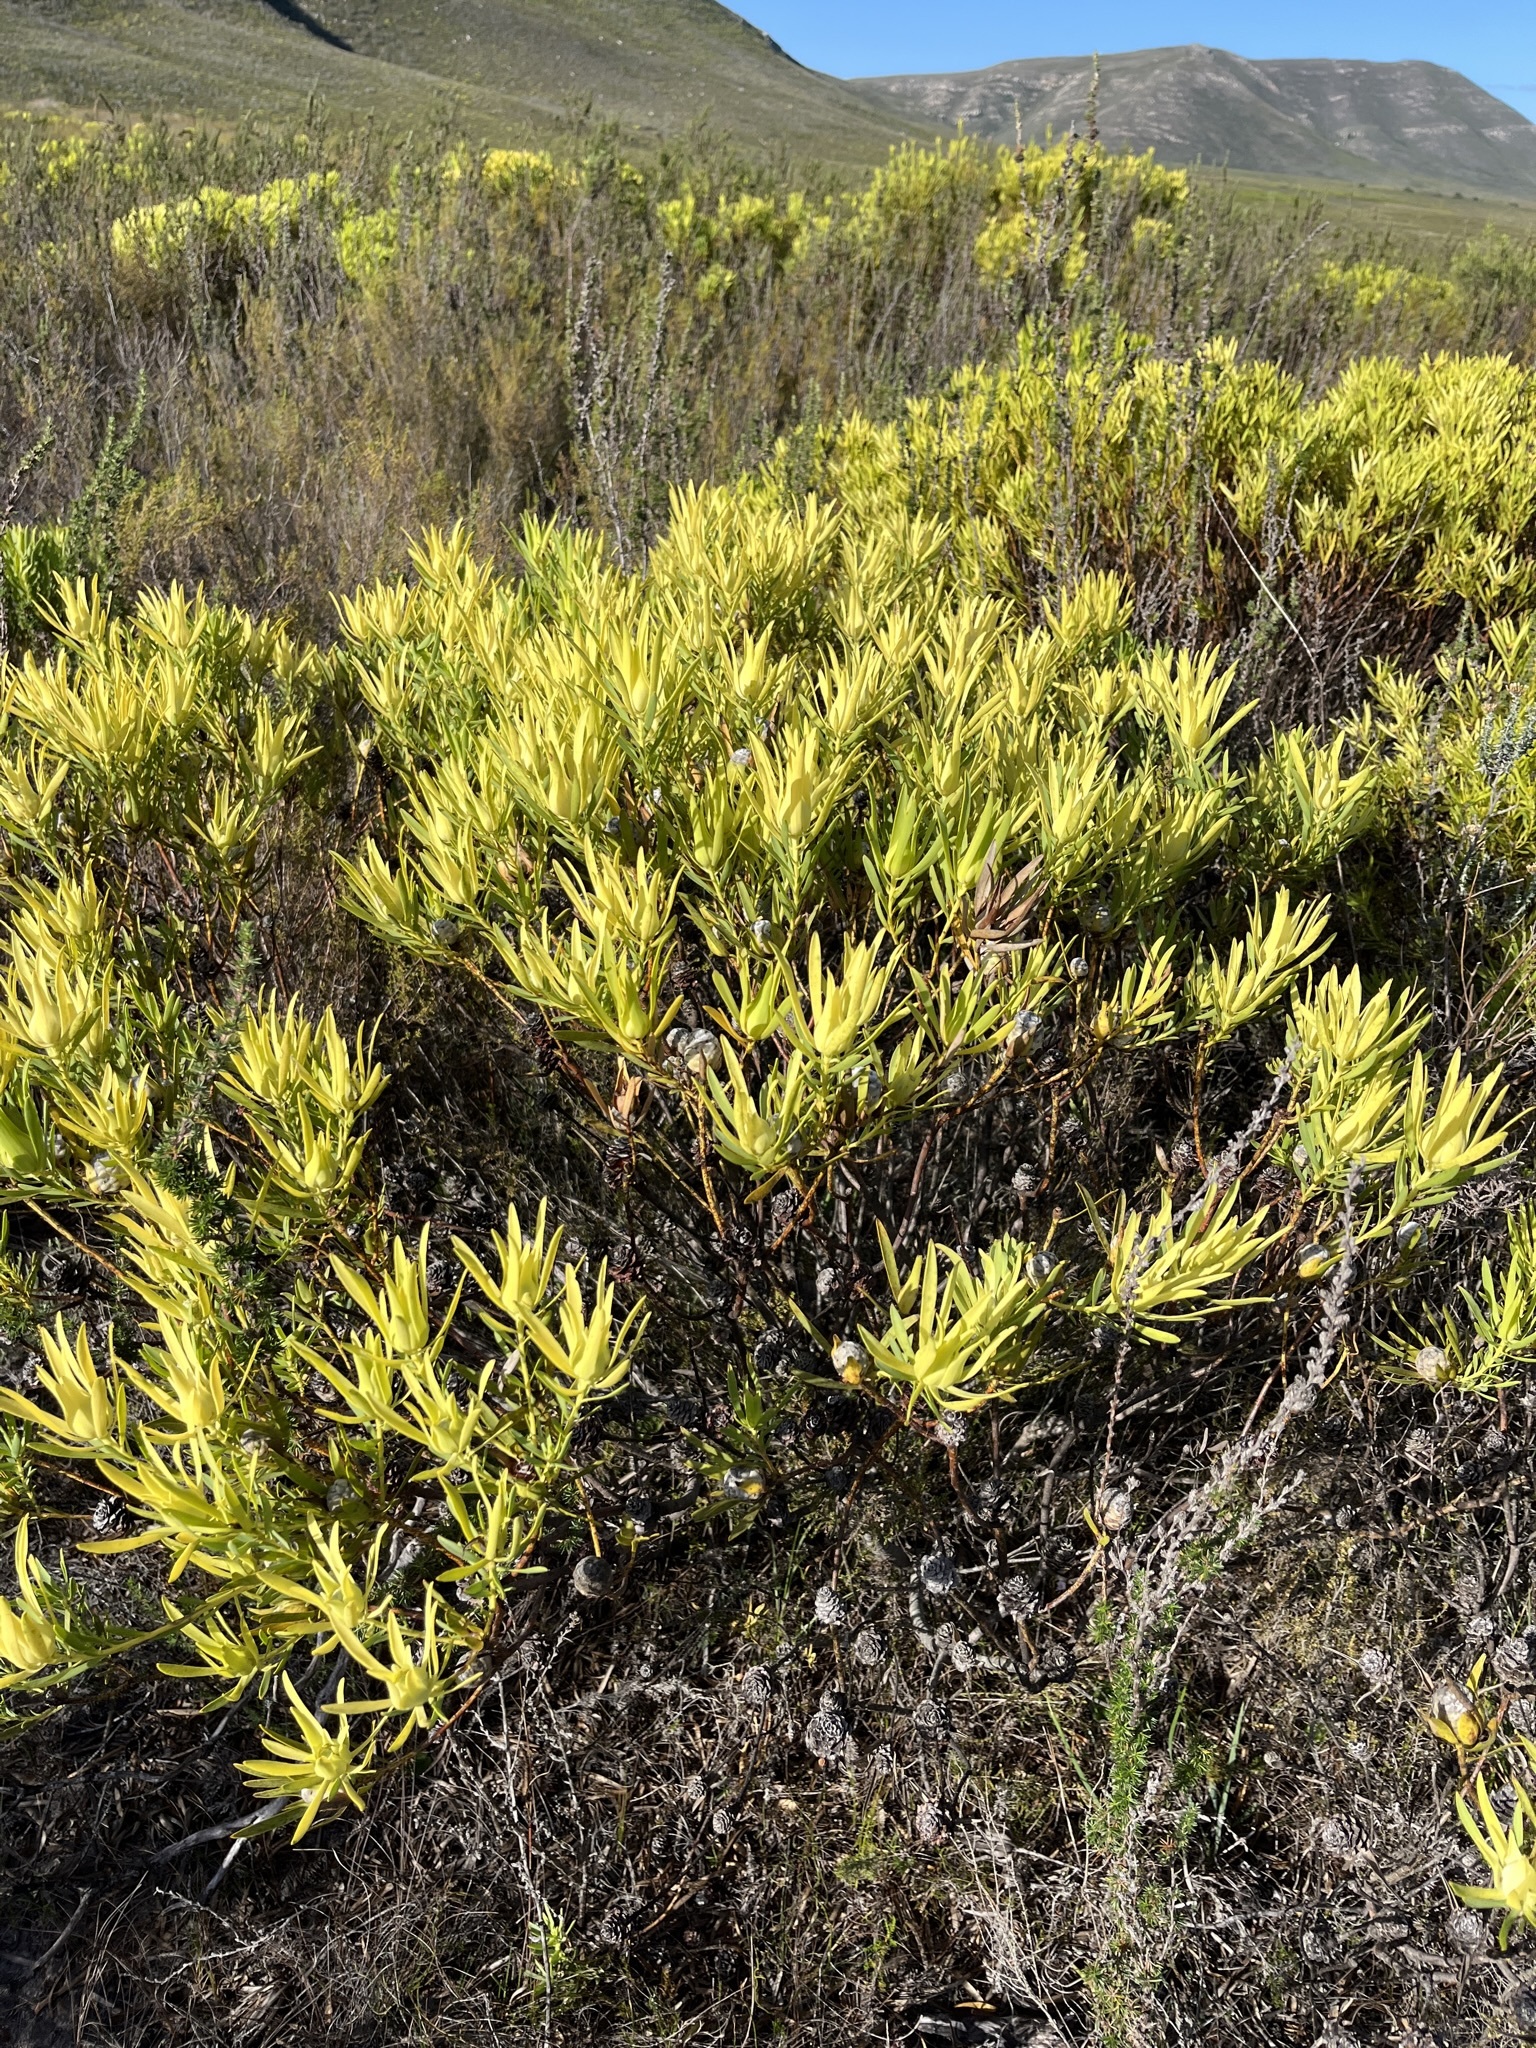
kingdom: Plantae
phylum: Tracheophyta
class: Magnoliopsida
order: Proteales
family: Proteaceae
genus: Leucadendron
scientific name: Leucadendron meridianum
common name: Limestone conebush
